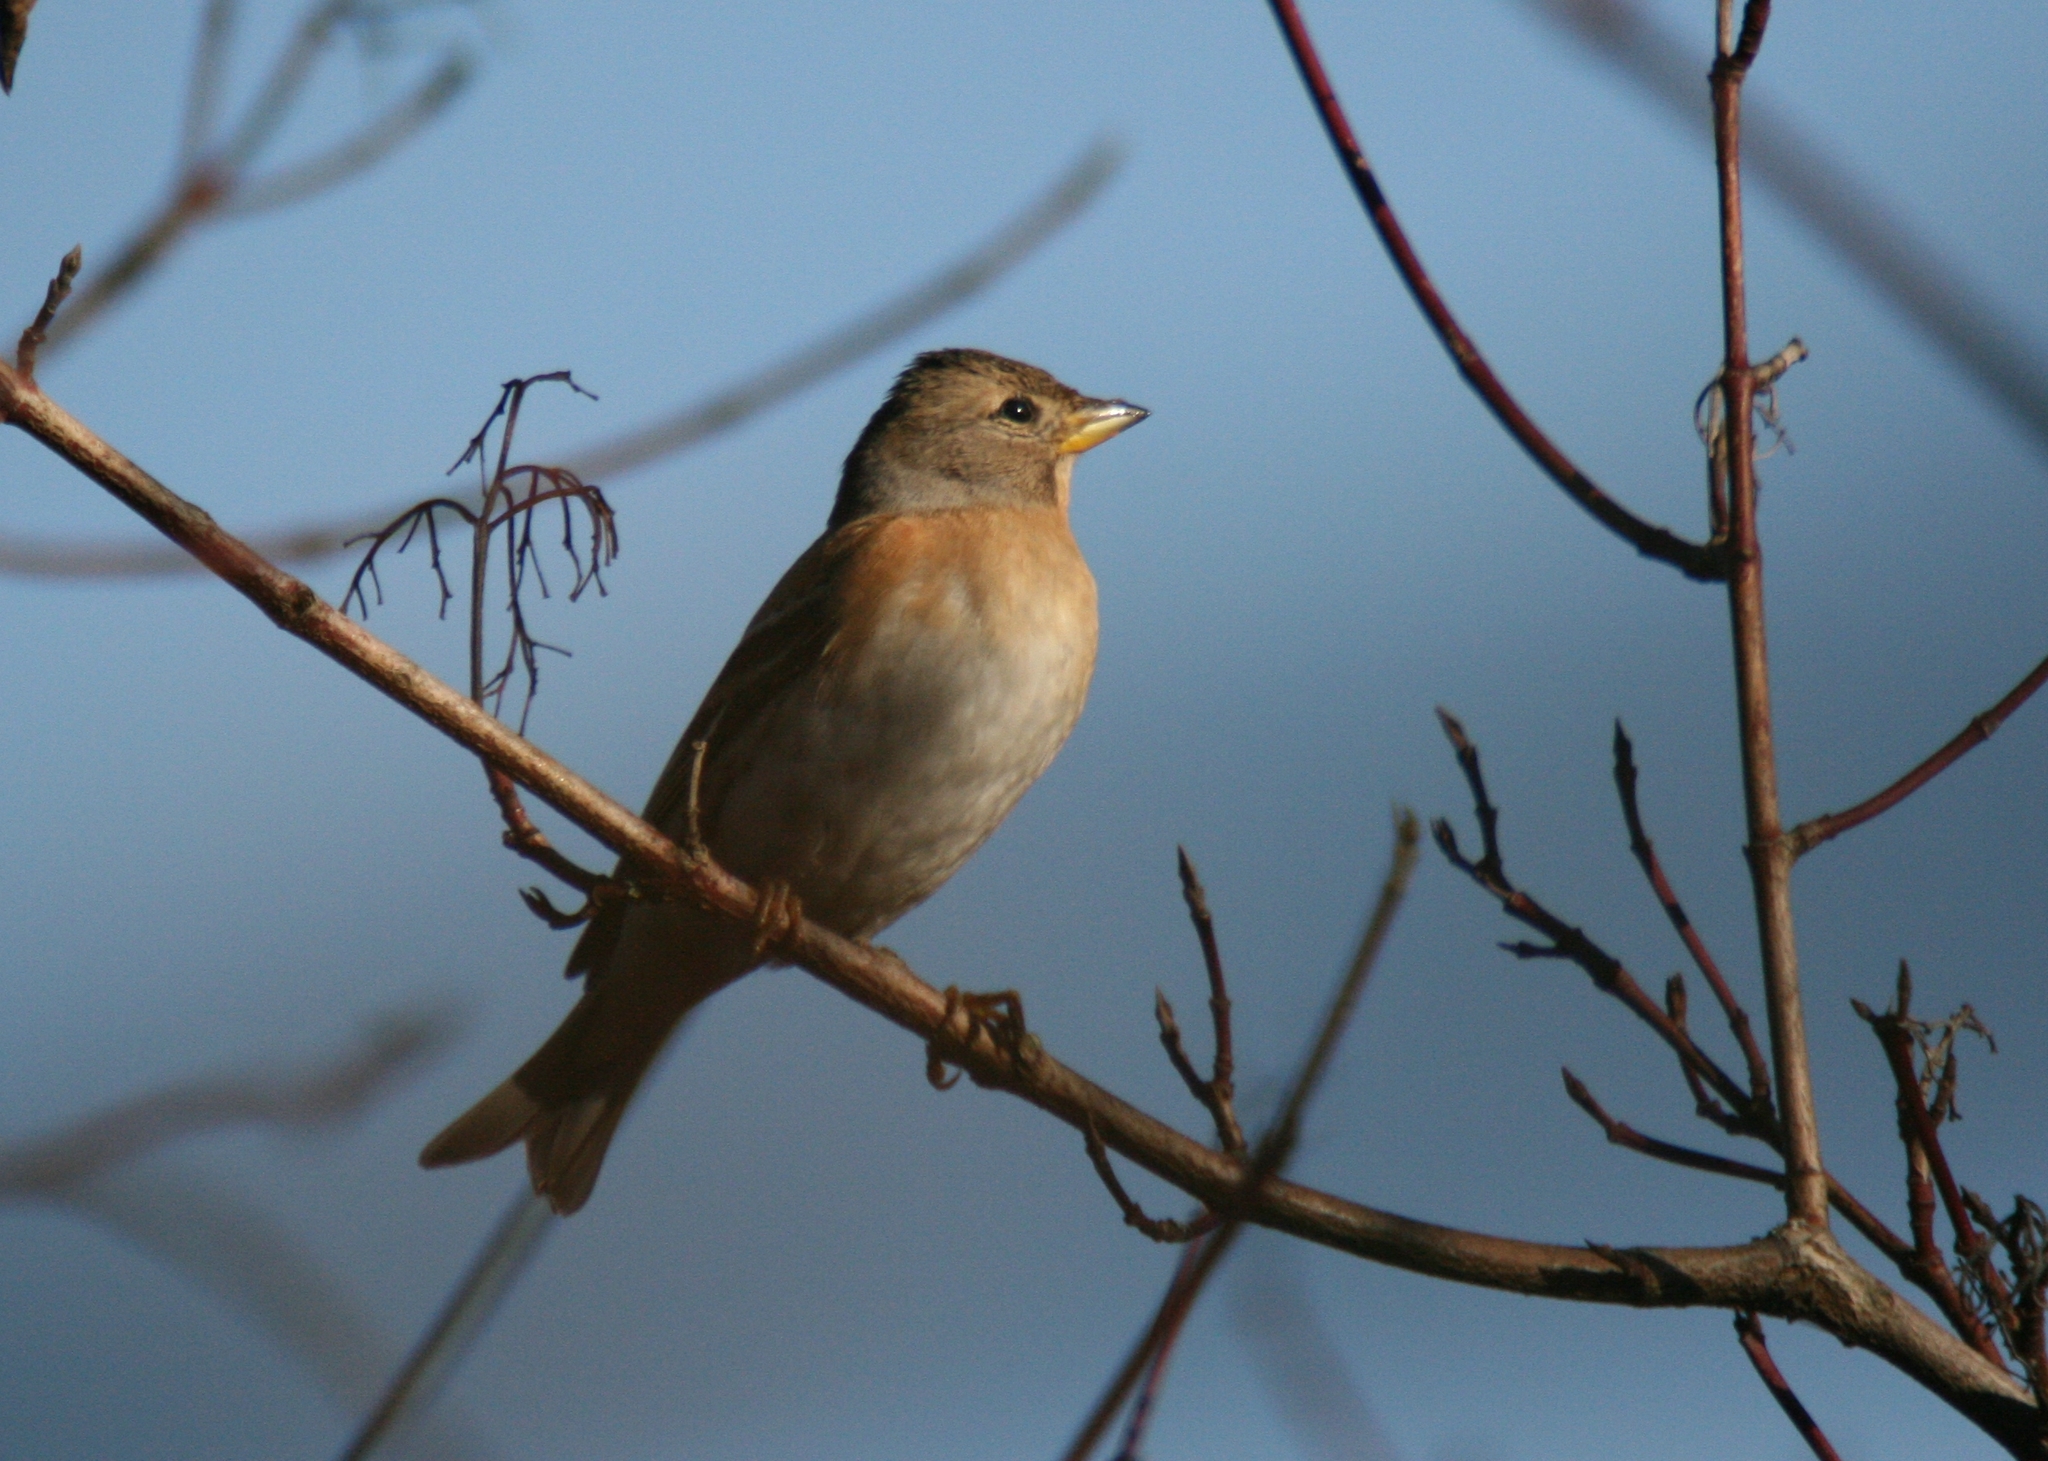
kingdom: Animalia
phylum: Chordata
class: Aves
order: Passeriformes
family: Fringillidae
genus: Fringilla
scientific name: Fringilla montifringilla
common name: Brambling
